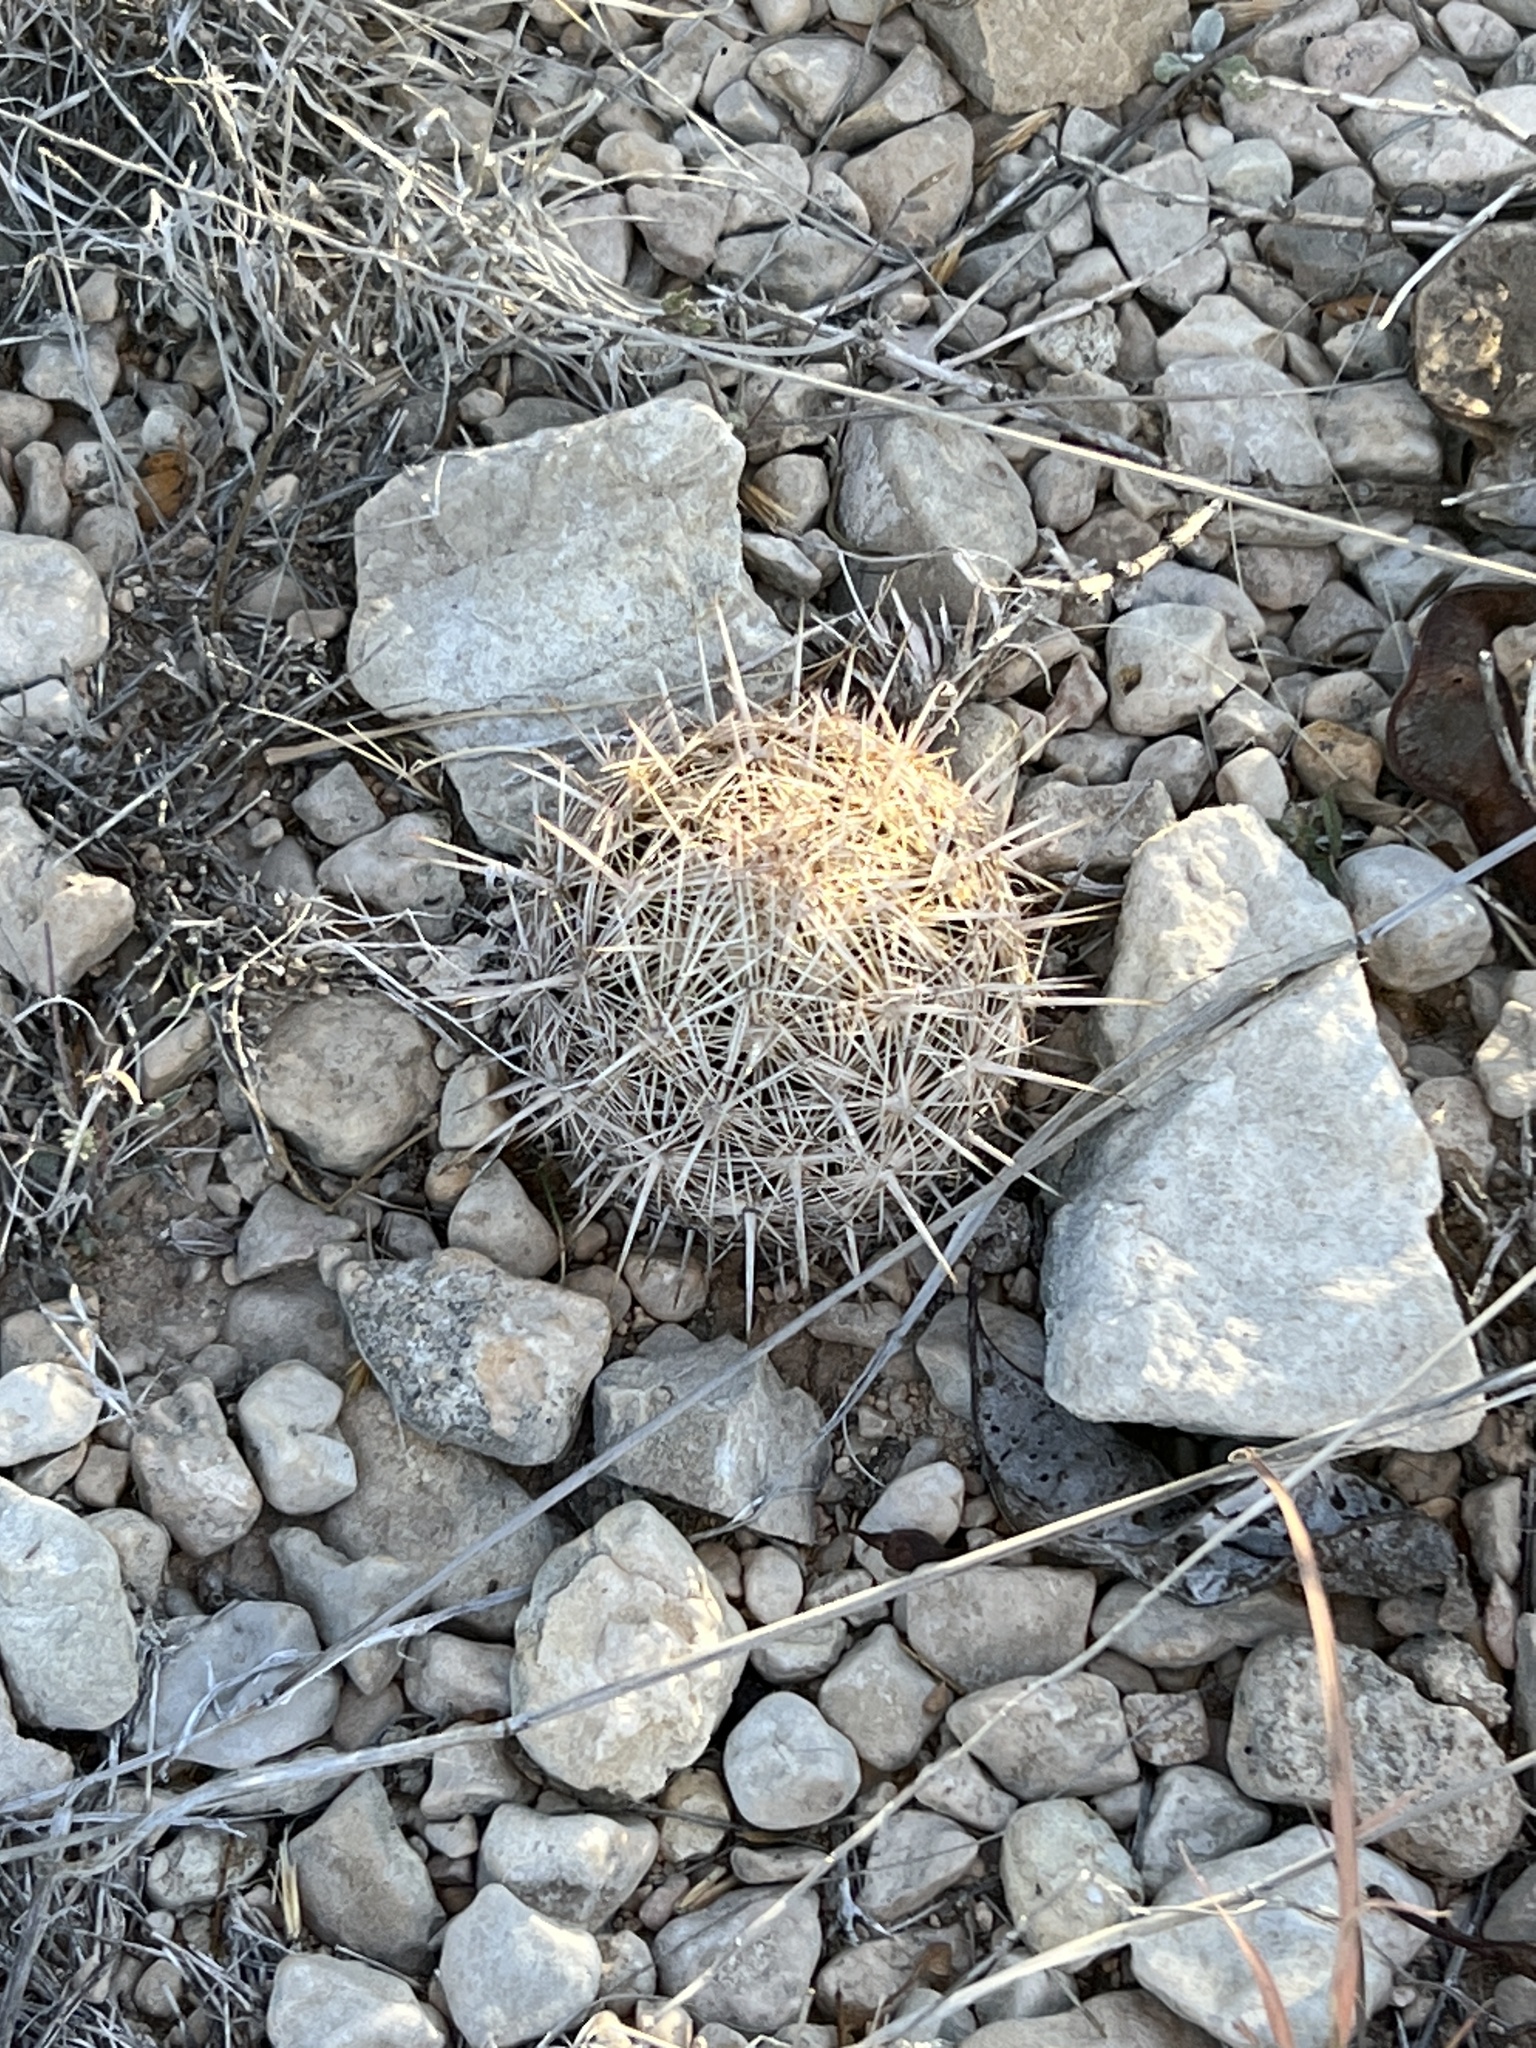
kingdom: Plantae
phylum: Tracheophyta
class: Magnoliopsida
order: Caryophyllales
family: Cactaceae
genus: Coryphantha
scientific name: Coryphantha echinus
